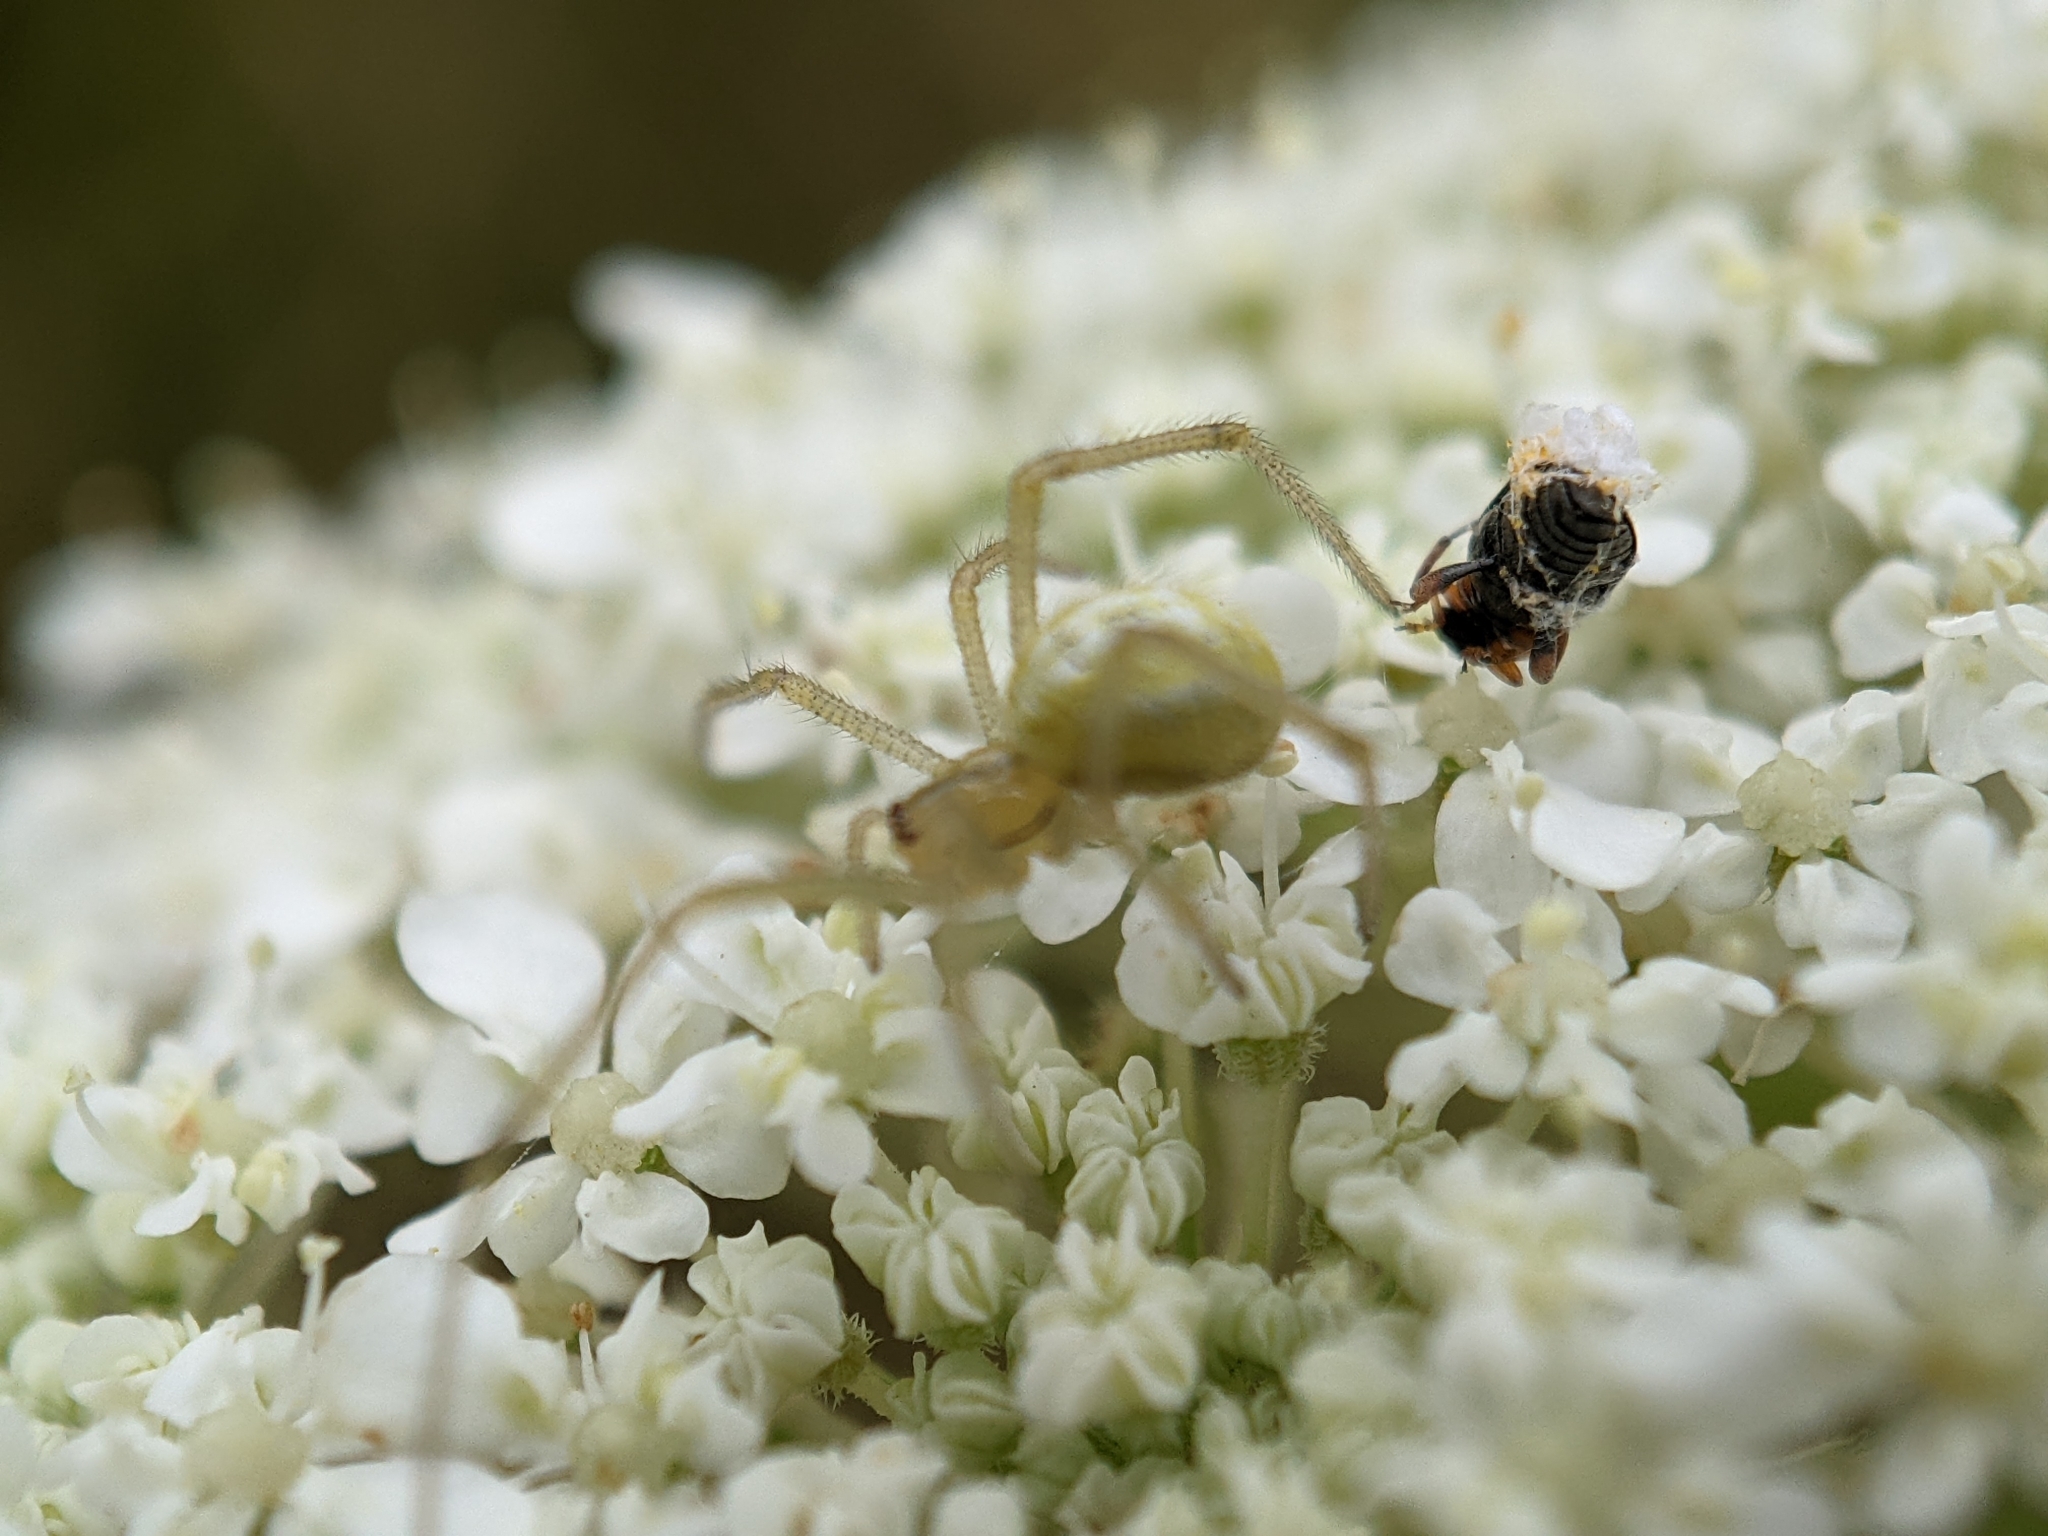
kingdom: Animalia
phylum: Arthropoda
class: Arachnida
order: Araneae
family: Theridiidae
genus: Enoplognatha
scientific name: Enoplognatha ovata
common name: Common candy-striped spider
